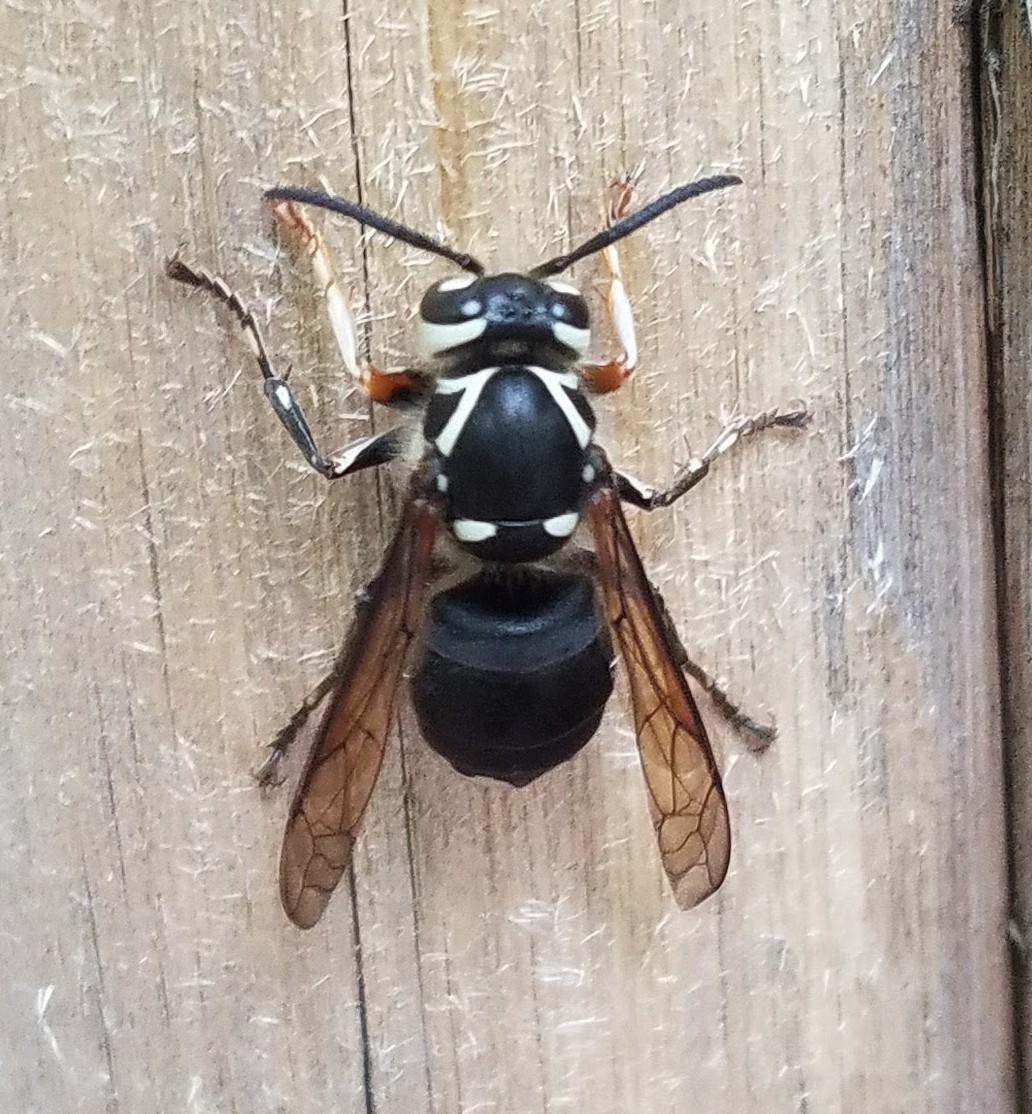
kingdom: Animalia
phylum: Arthropoda
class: Insecta
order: Hymenoptera
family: Vespidae
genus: Dolichovespula
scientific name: Dolichovespula maculata
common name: Bald-faced hornet
